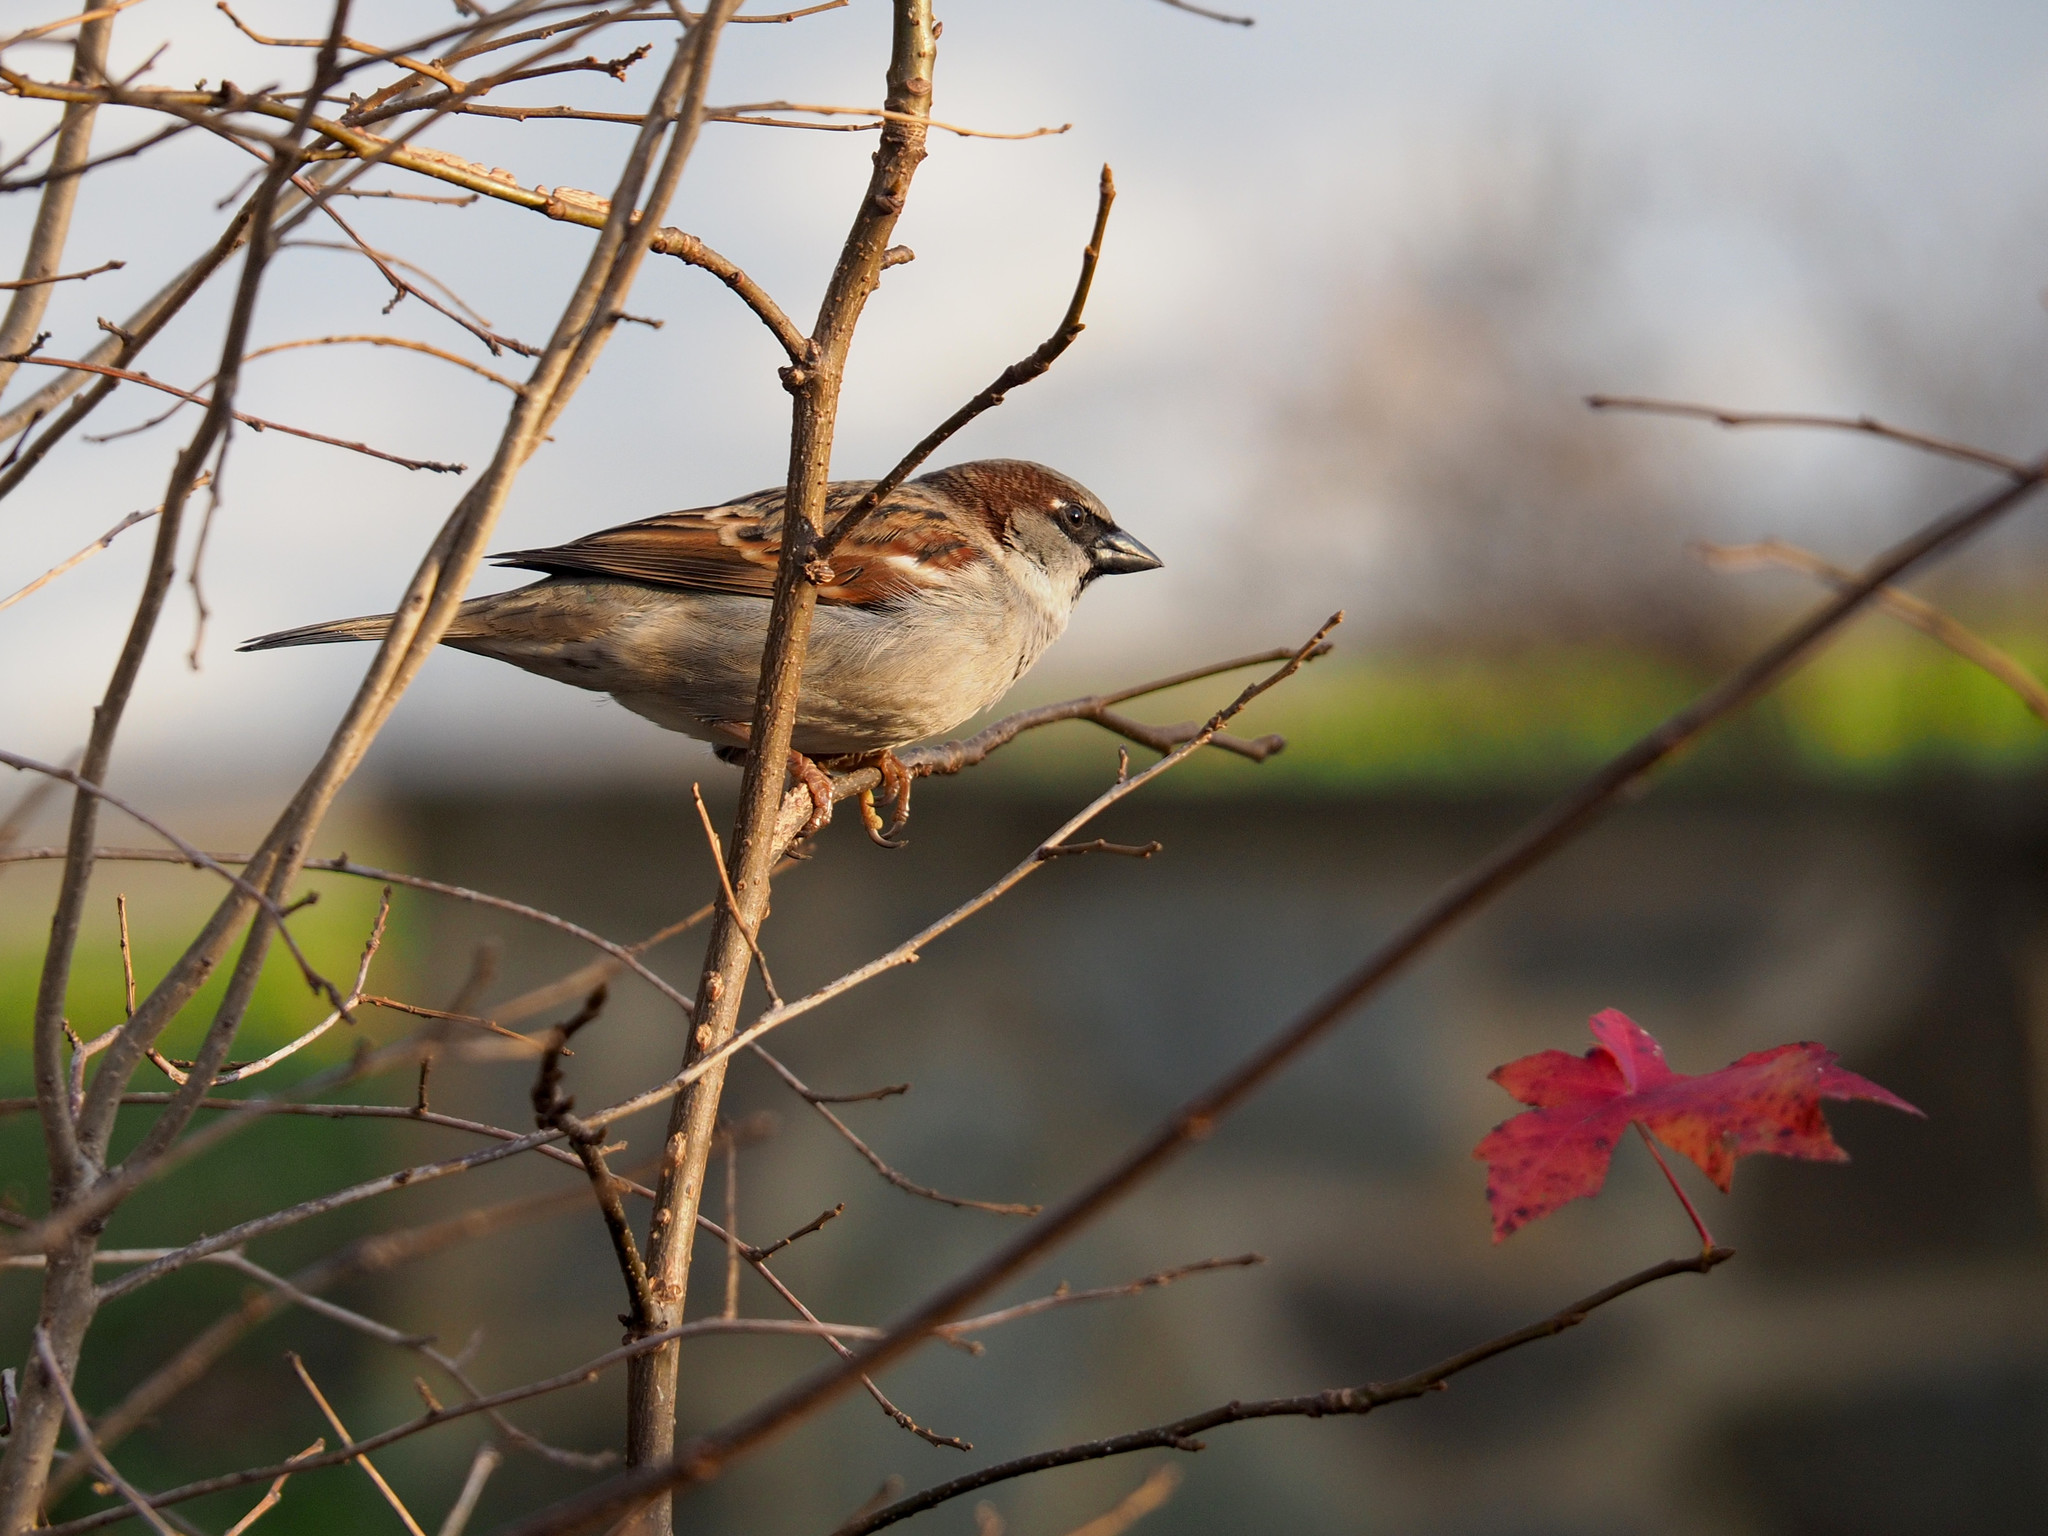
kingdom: Animalia
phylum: Chordata
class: Aves
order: Passeriformes
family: Passeridae
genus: Passer
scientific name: Passer domesticus
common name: House sparrow
